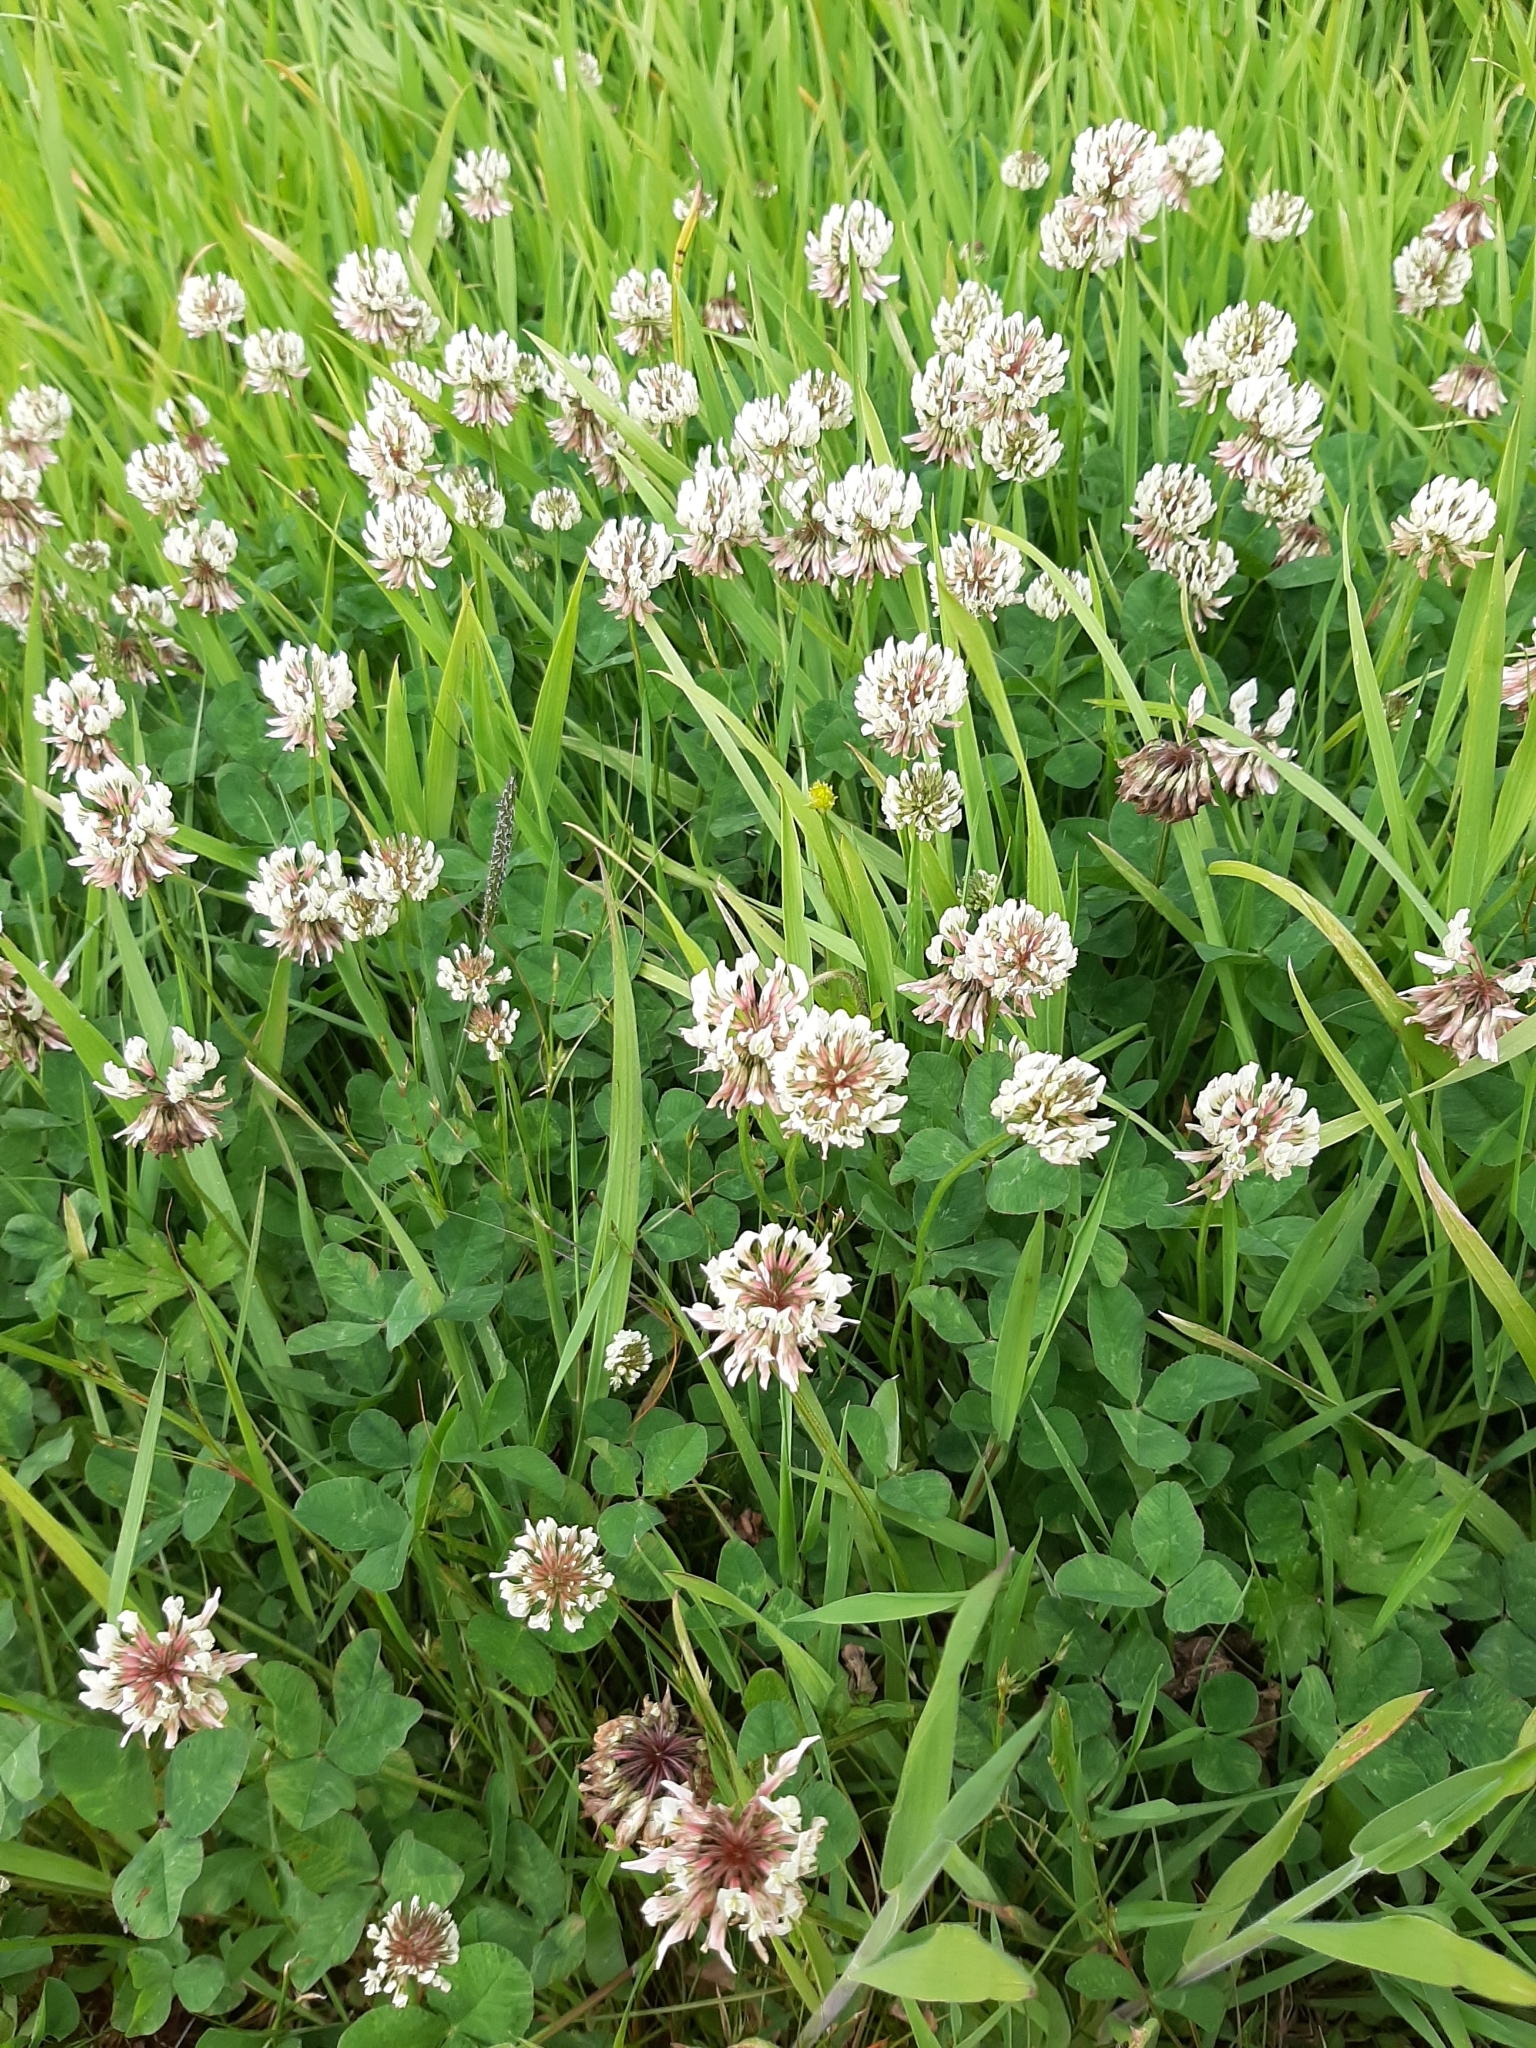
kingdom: Plantae
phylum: Tracheophyta
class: Magnoliopsida
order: Fabales
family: Fabaceae
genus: Trifolium
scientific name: Trifolium repens
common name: White clover
